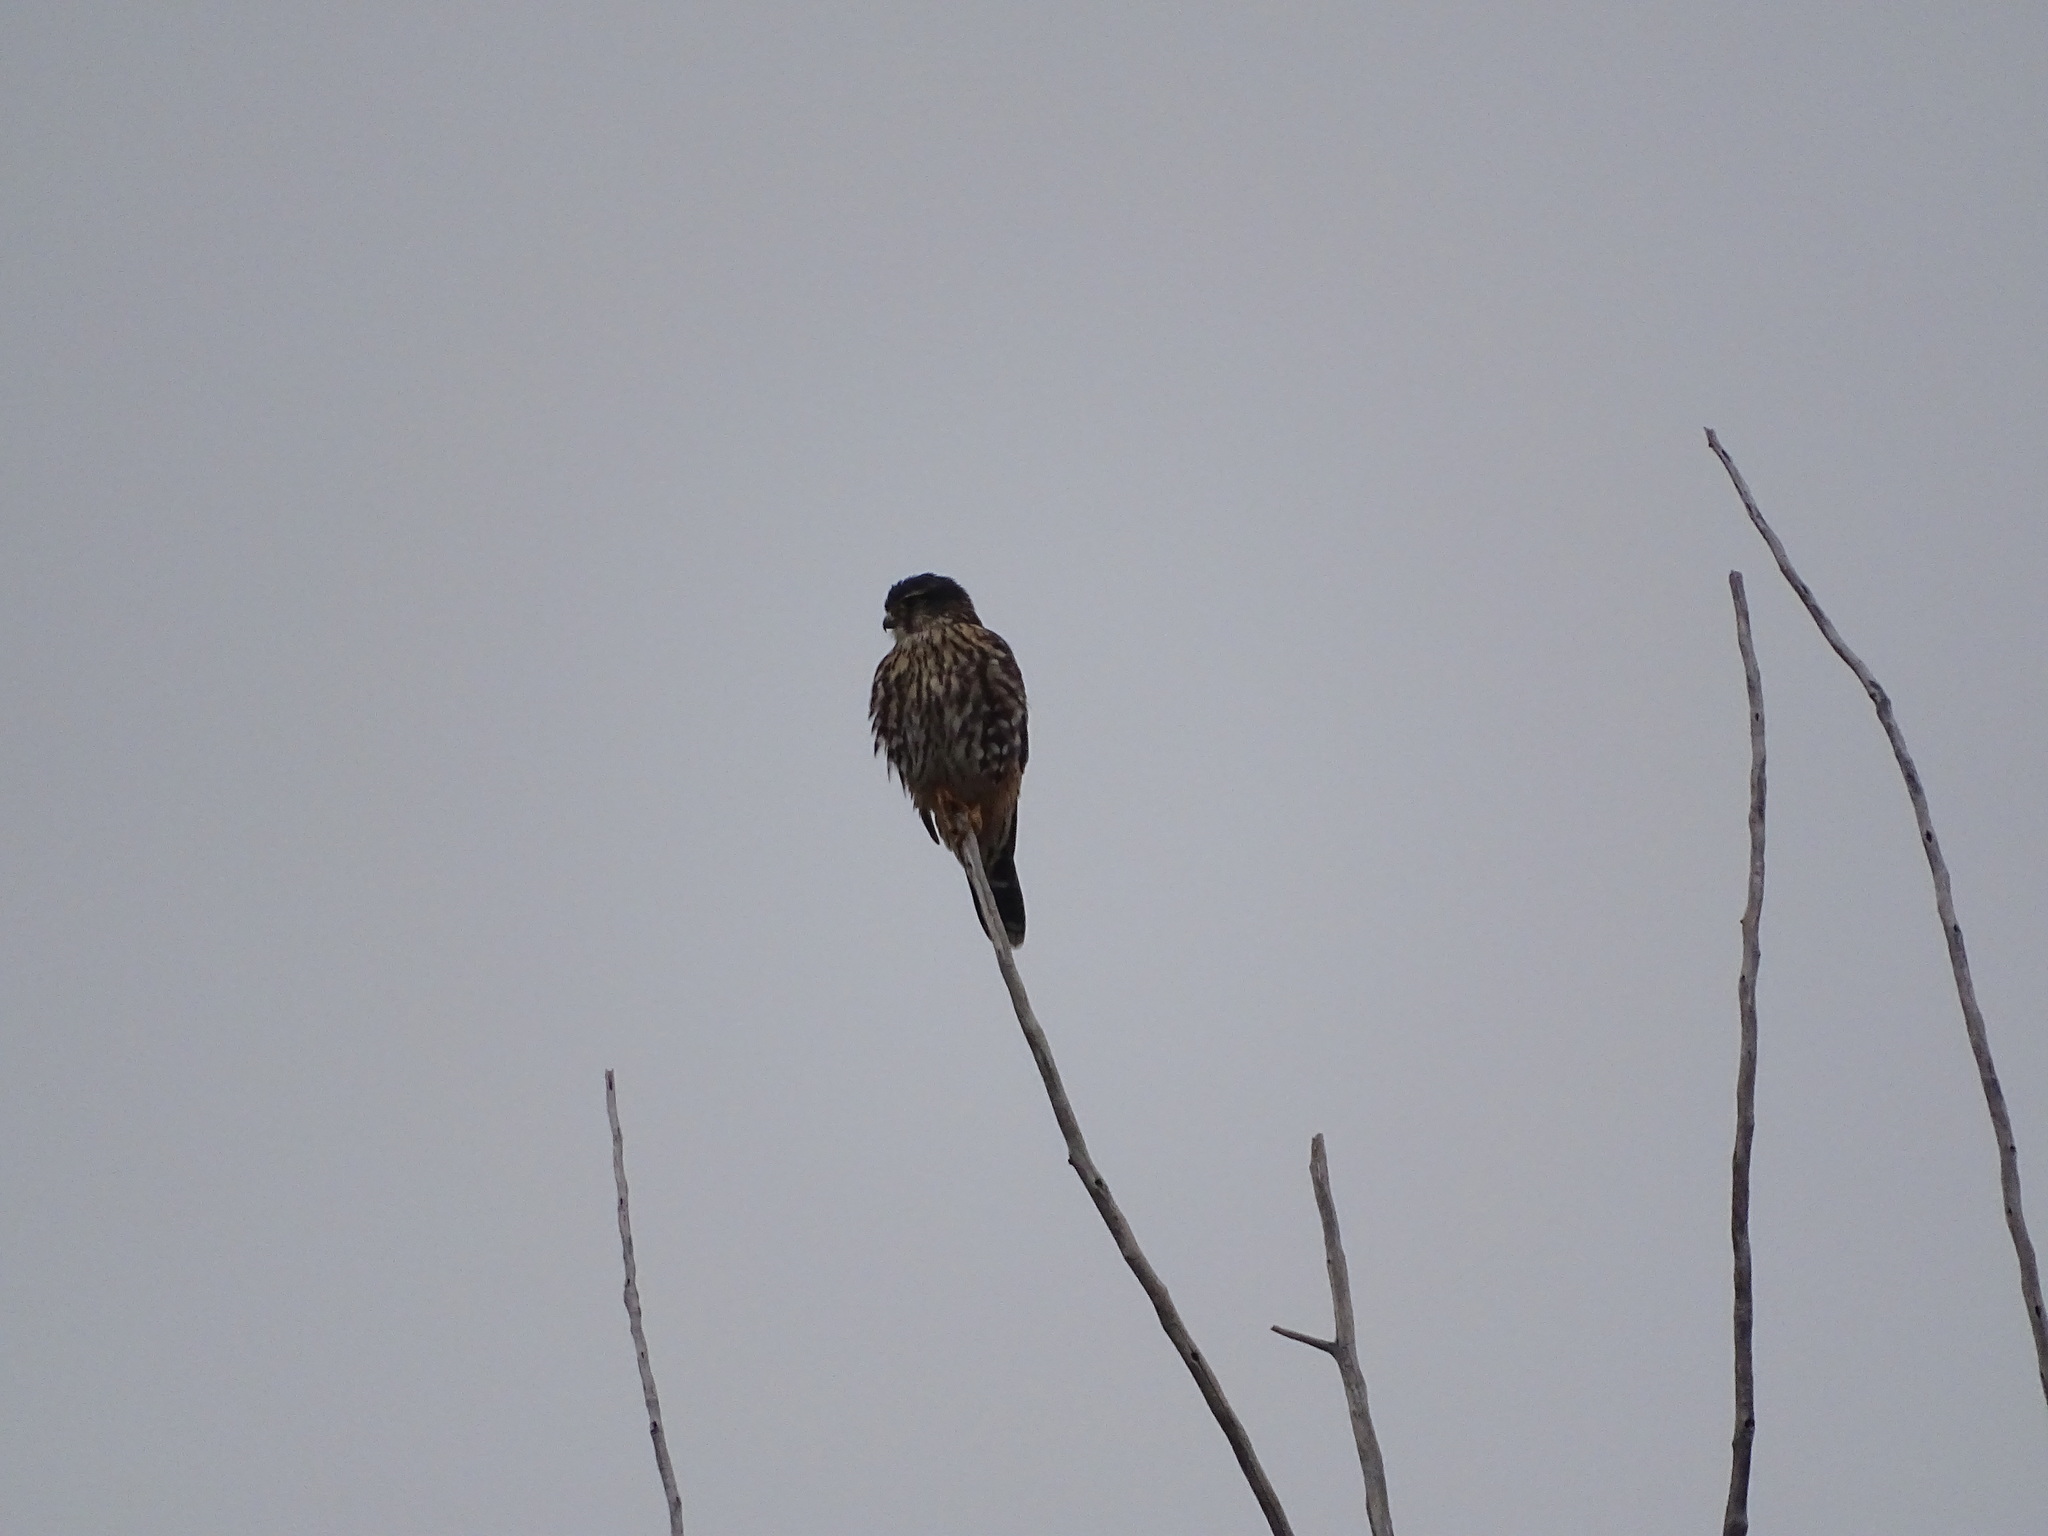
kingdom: Animalia
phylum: Chordata
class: Aves
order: Falconiformes
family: Falconidae
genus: Falco
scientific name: Falco columbarius
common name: Merlin
